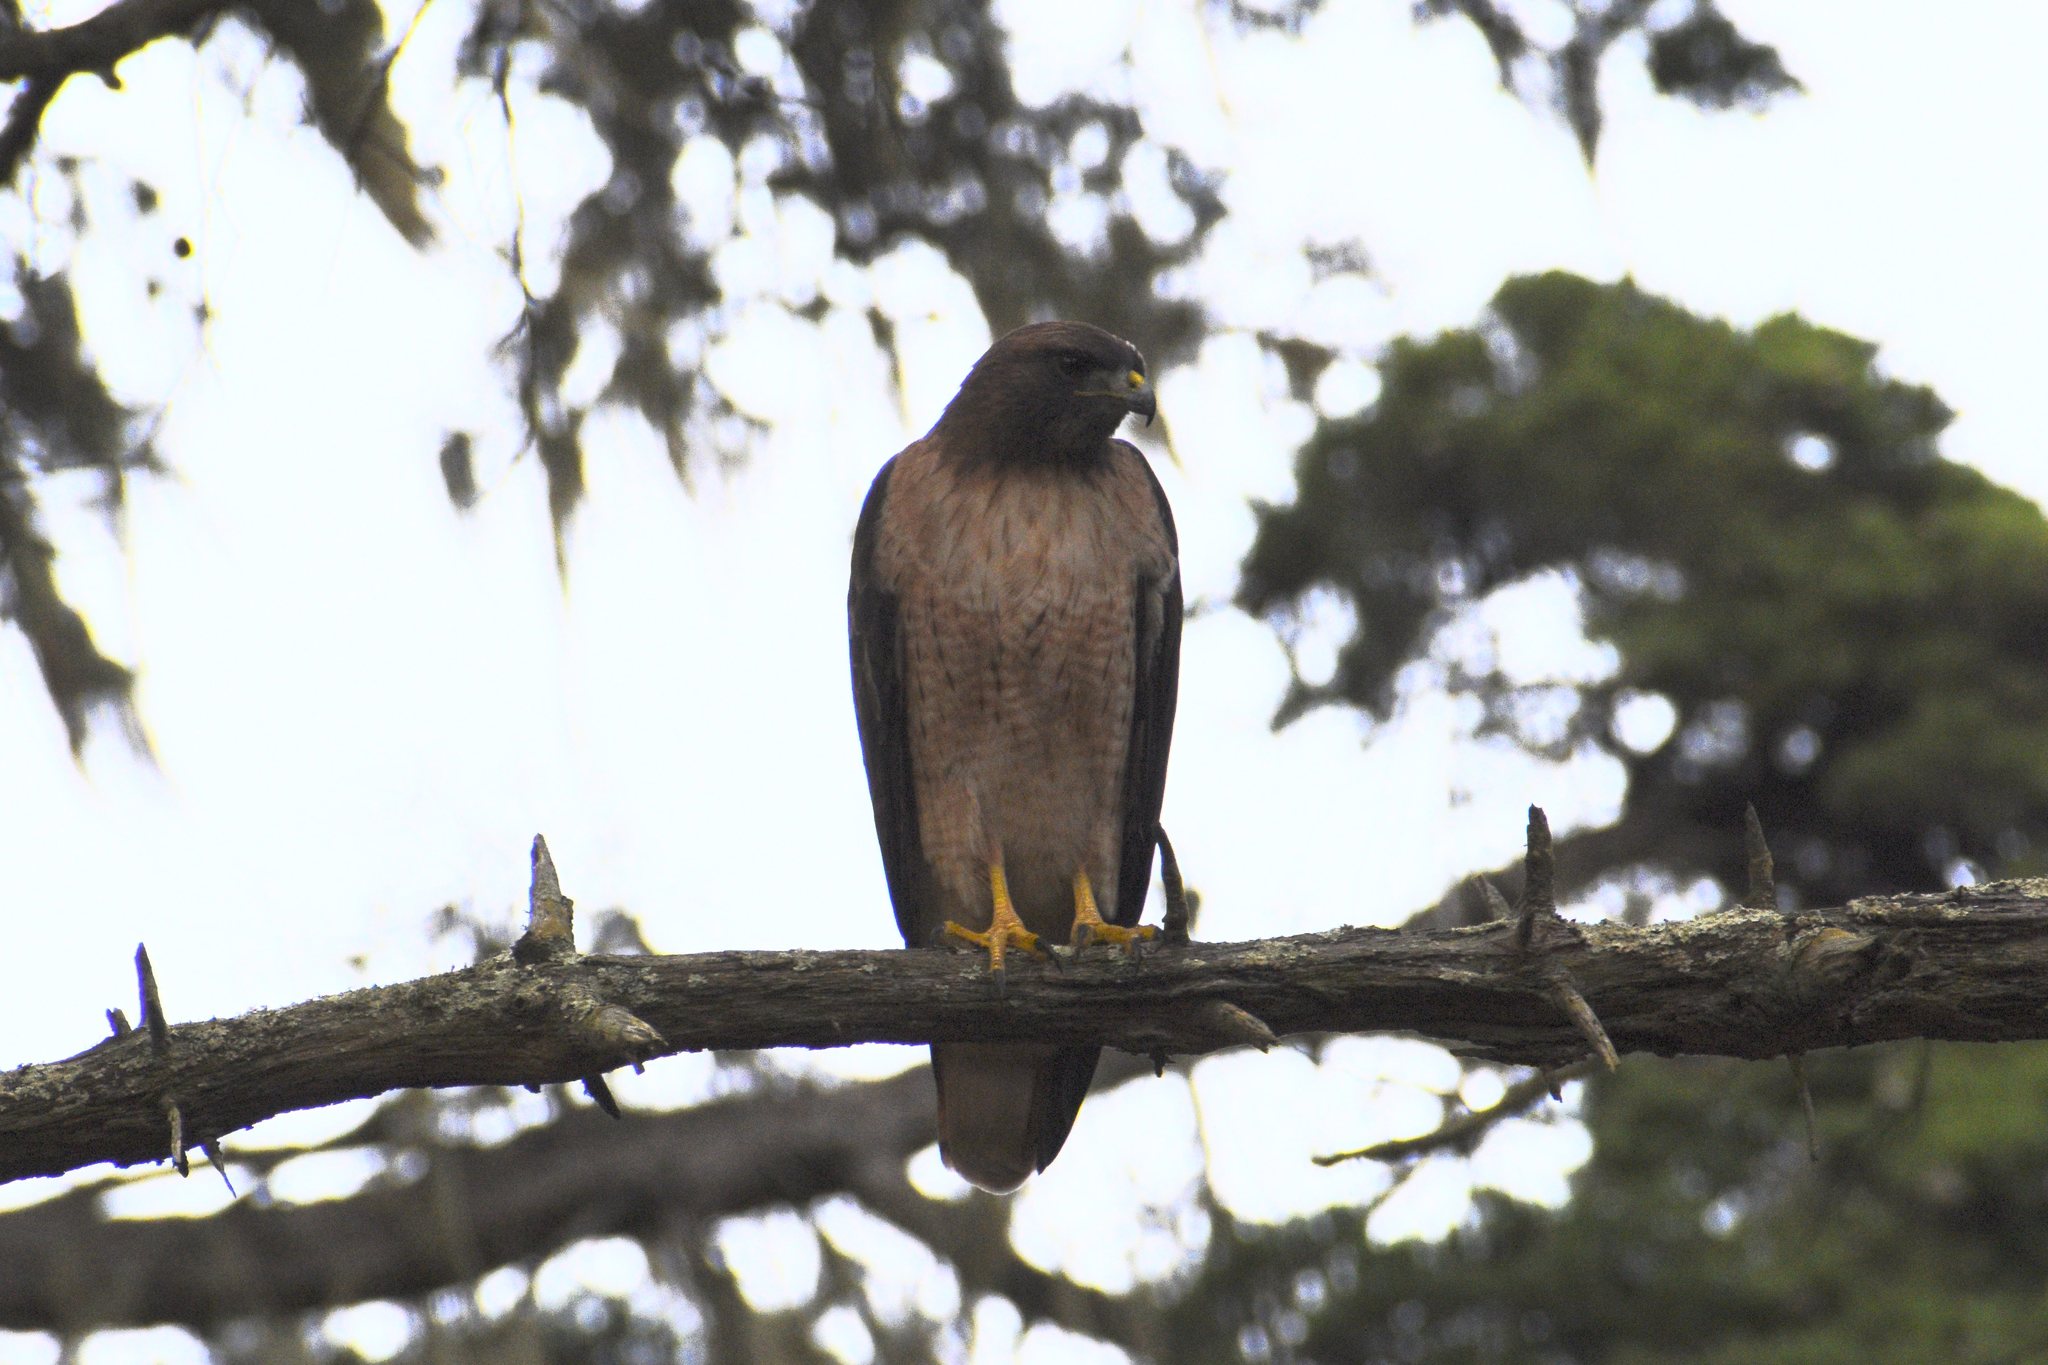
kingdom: Animalia
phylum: Chordata
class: Aves
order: Accipitriformes
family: Accipitridae
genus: Buteo
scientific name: Buteo jamaicensis
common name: Red-tailed hawk
